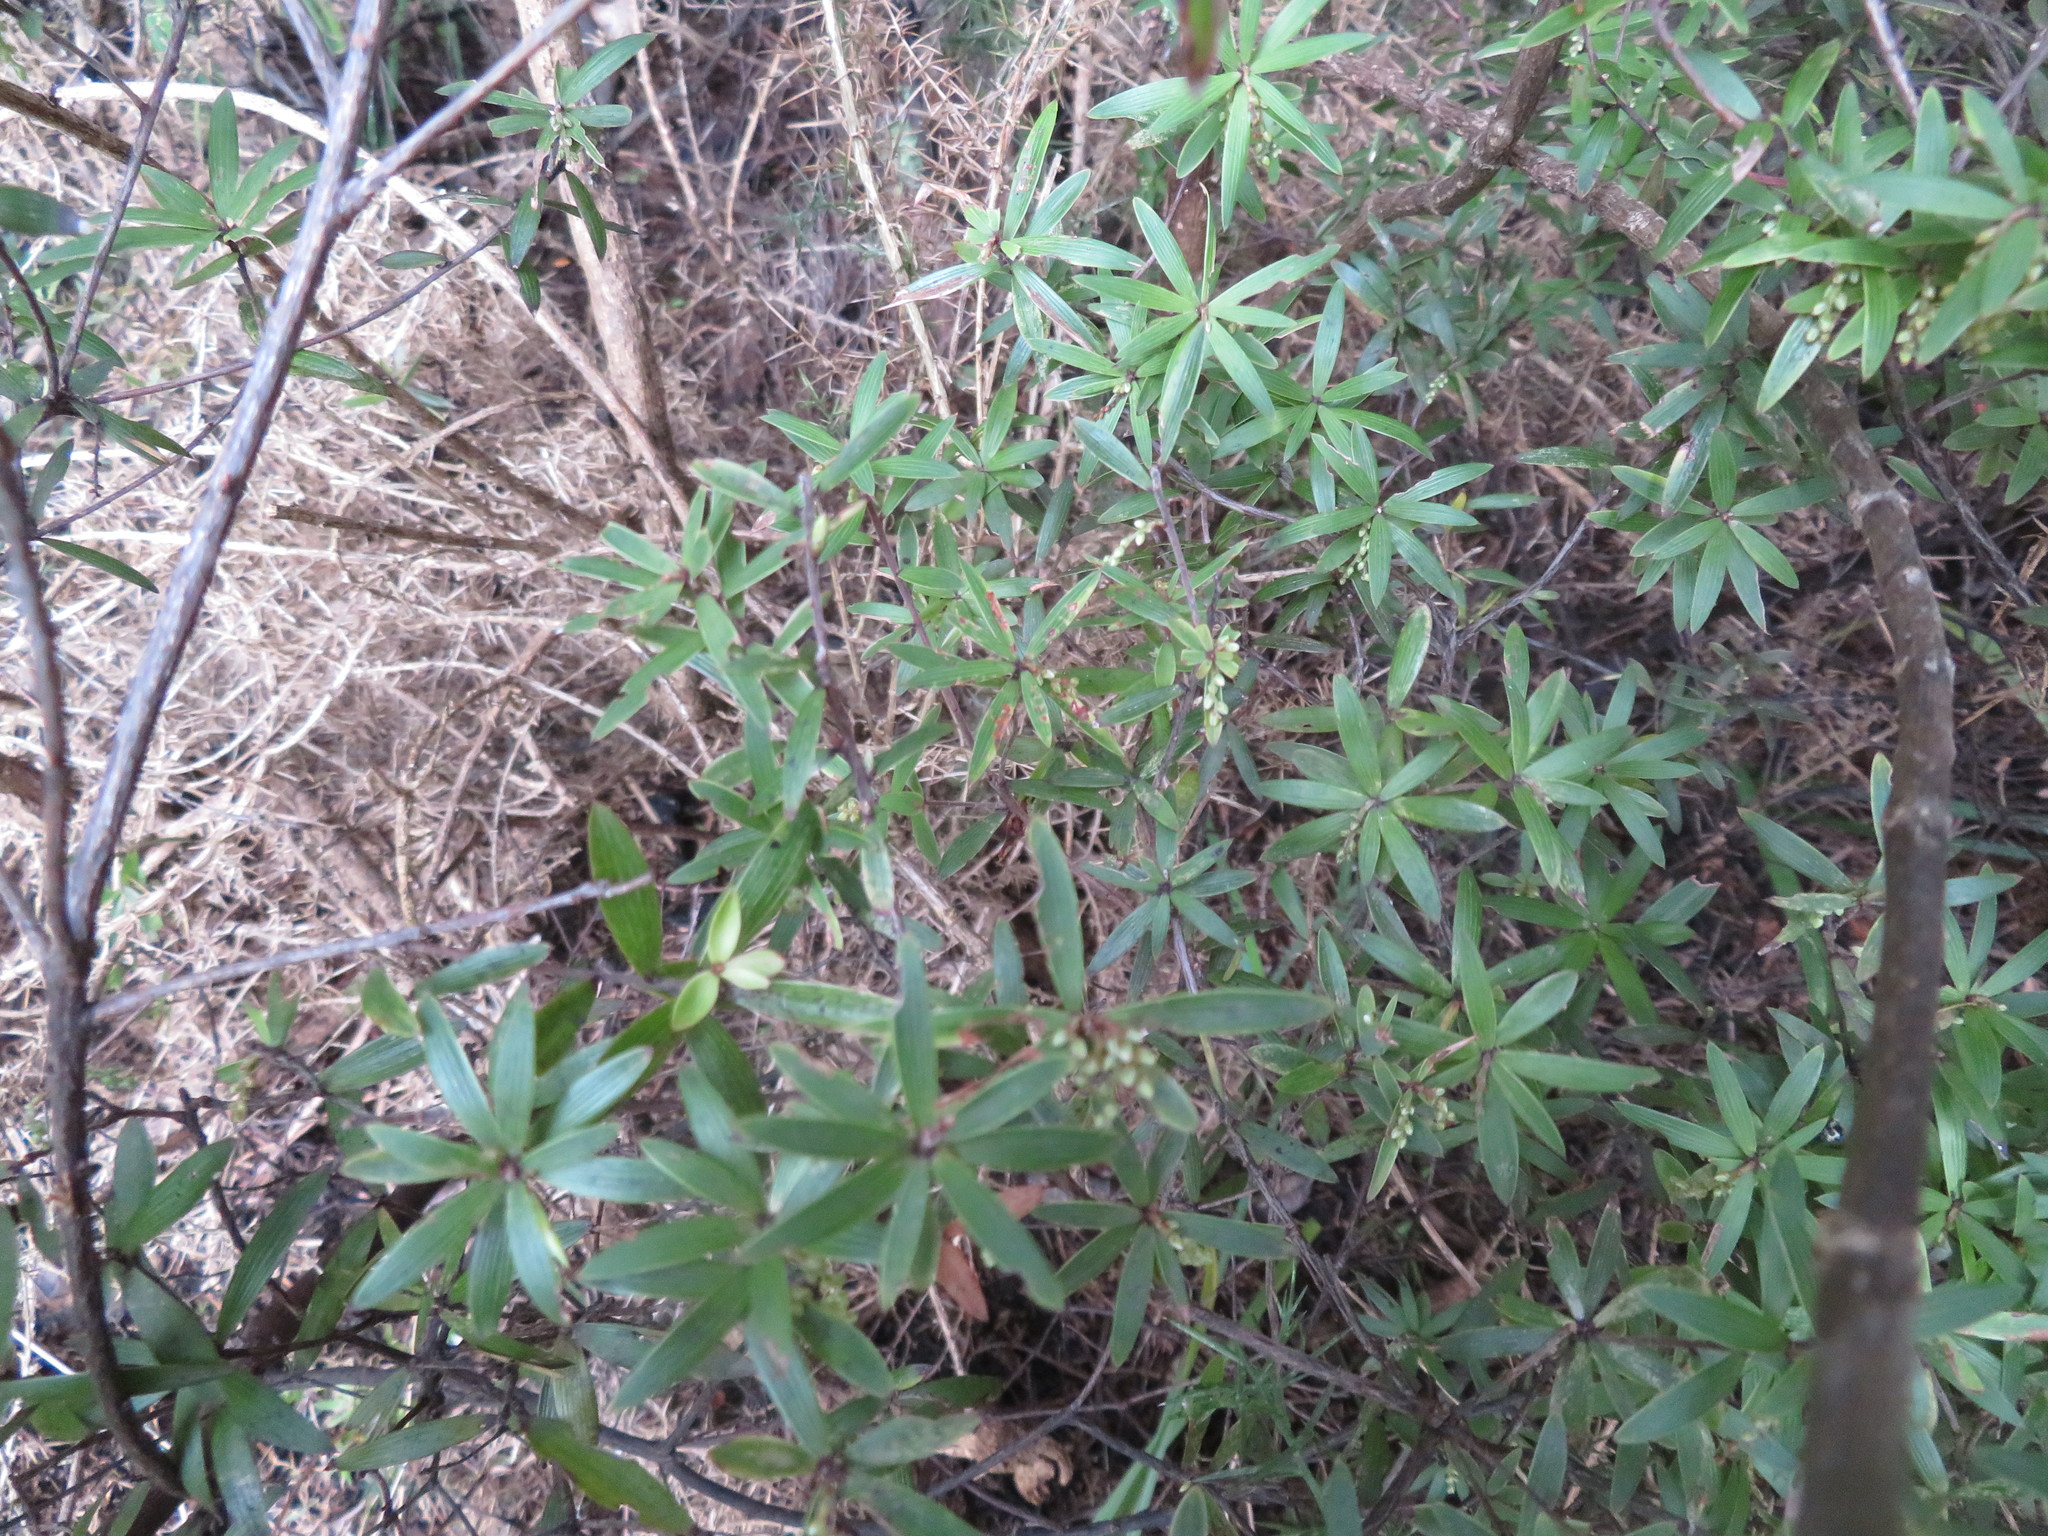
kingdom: Plantae
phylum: Tracheophyta
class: Magnoliopsida
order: Ericales
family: Ericaceae
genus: Leucopogon
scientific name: Leucopogon fasciculatus
